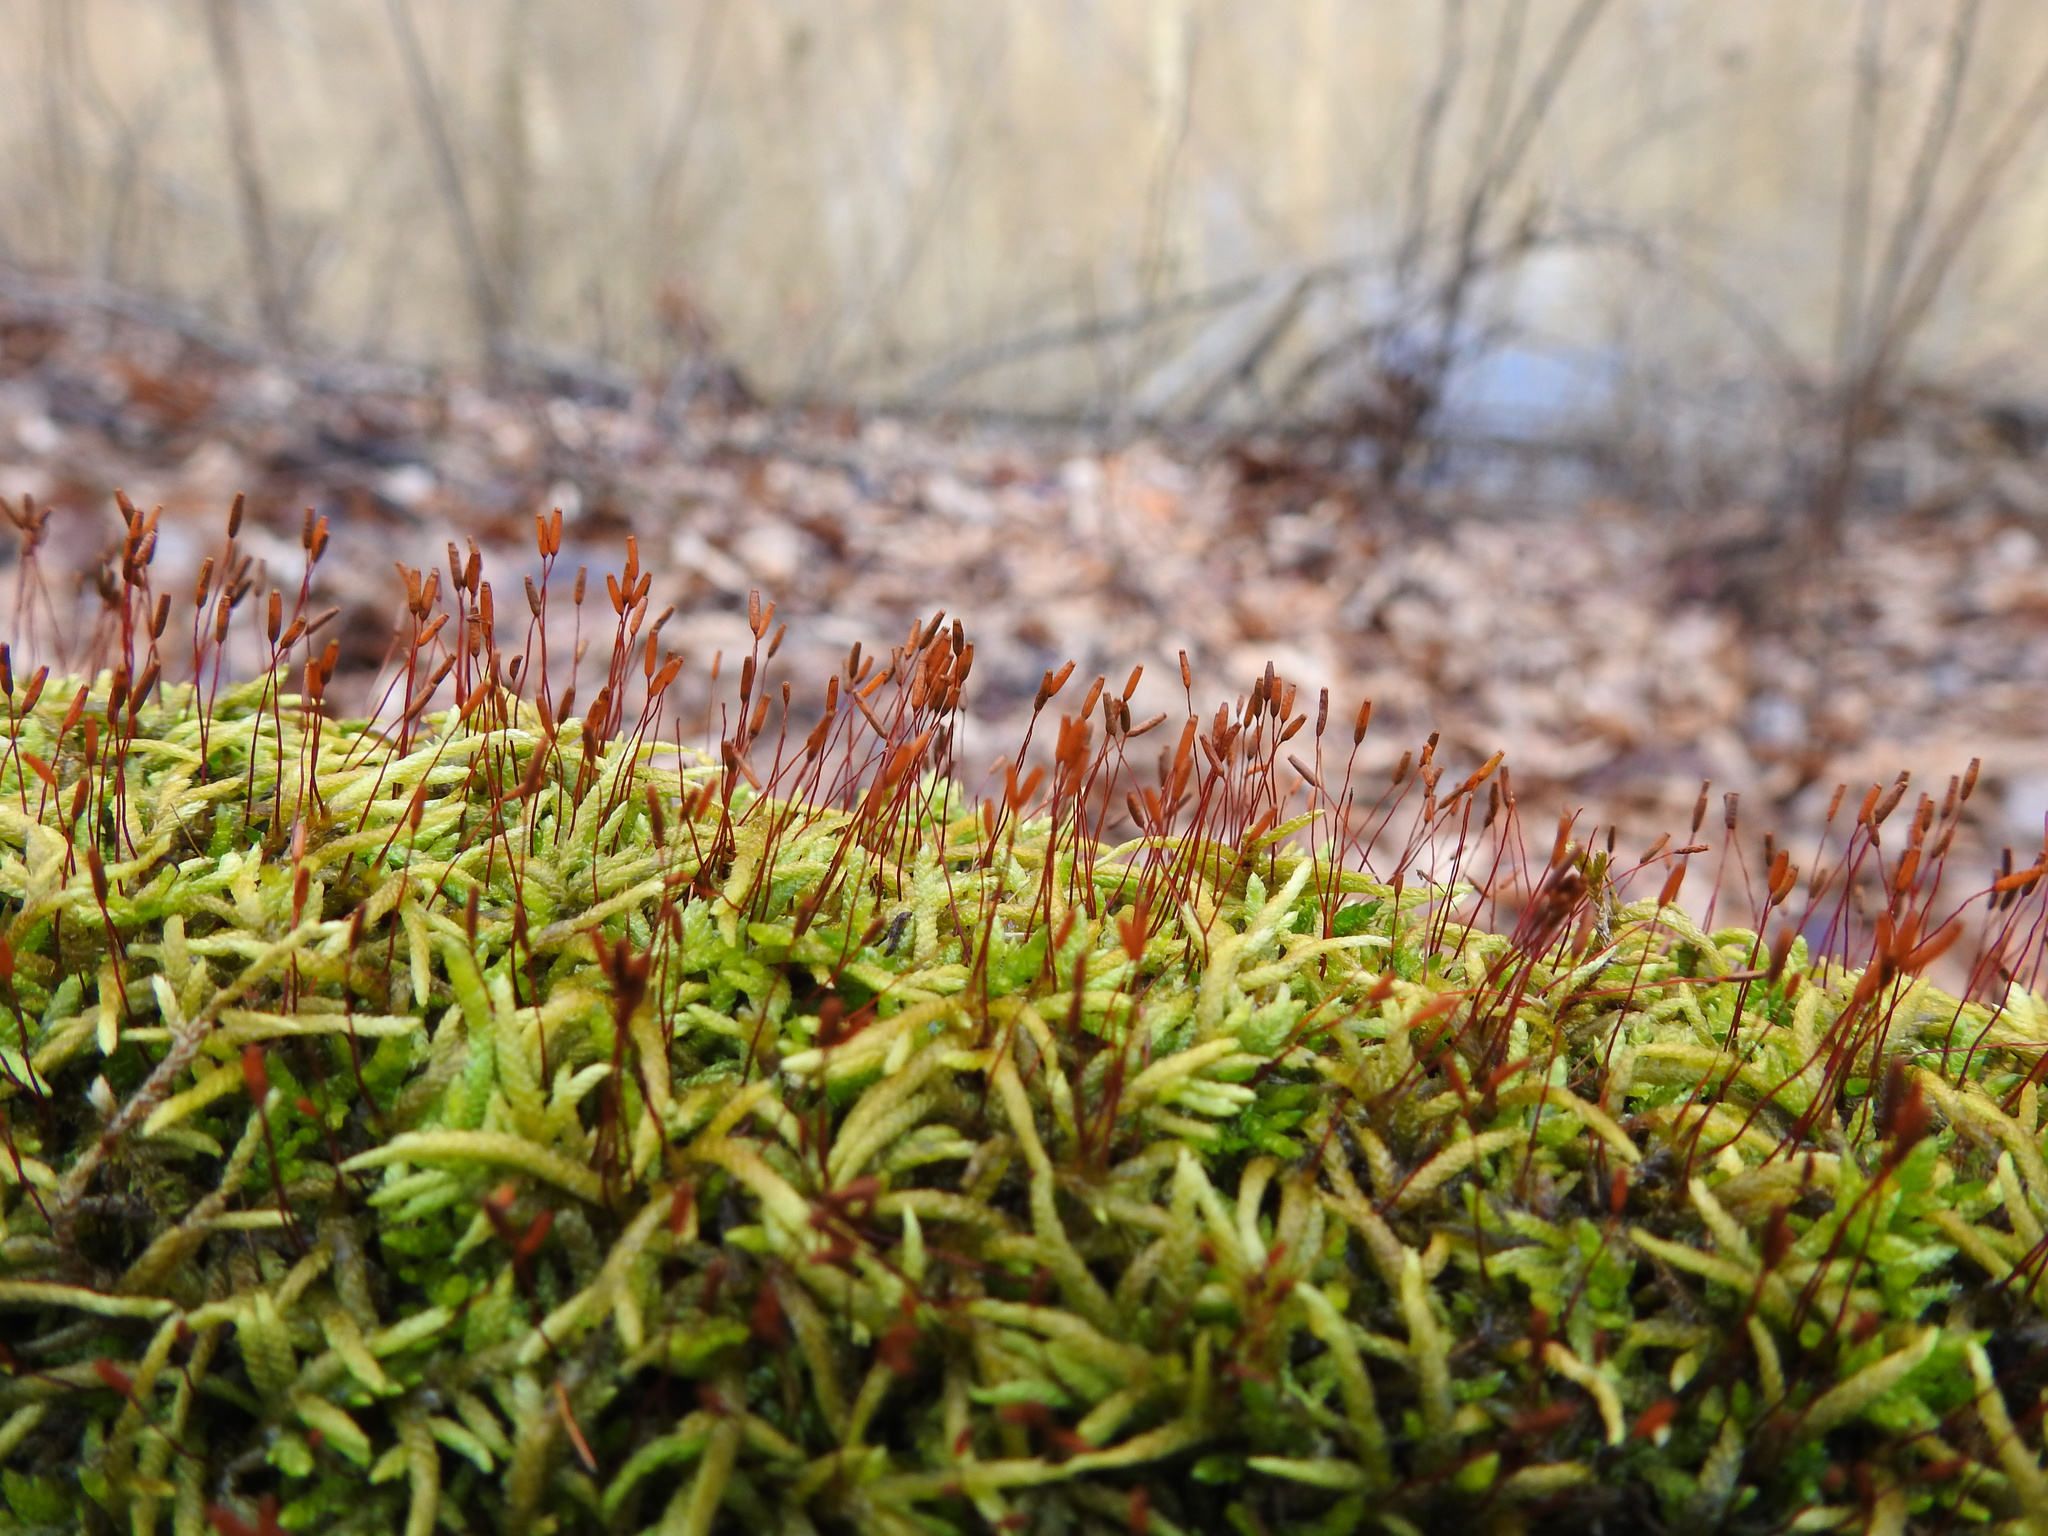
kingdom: Plantae
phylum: Bryophyta
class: Bryopsida
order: Hypnales
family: Entodontaceae
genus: Entodon
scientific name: Entodon seductrix
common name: Round-stemmed entodon moss
